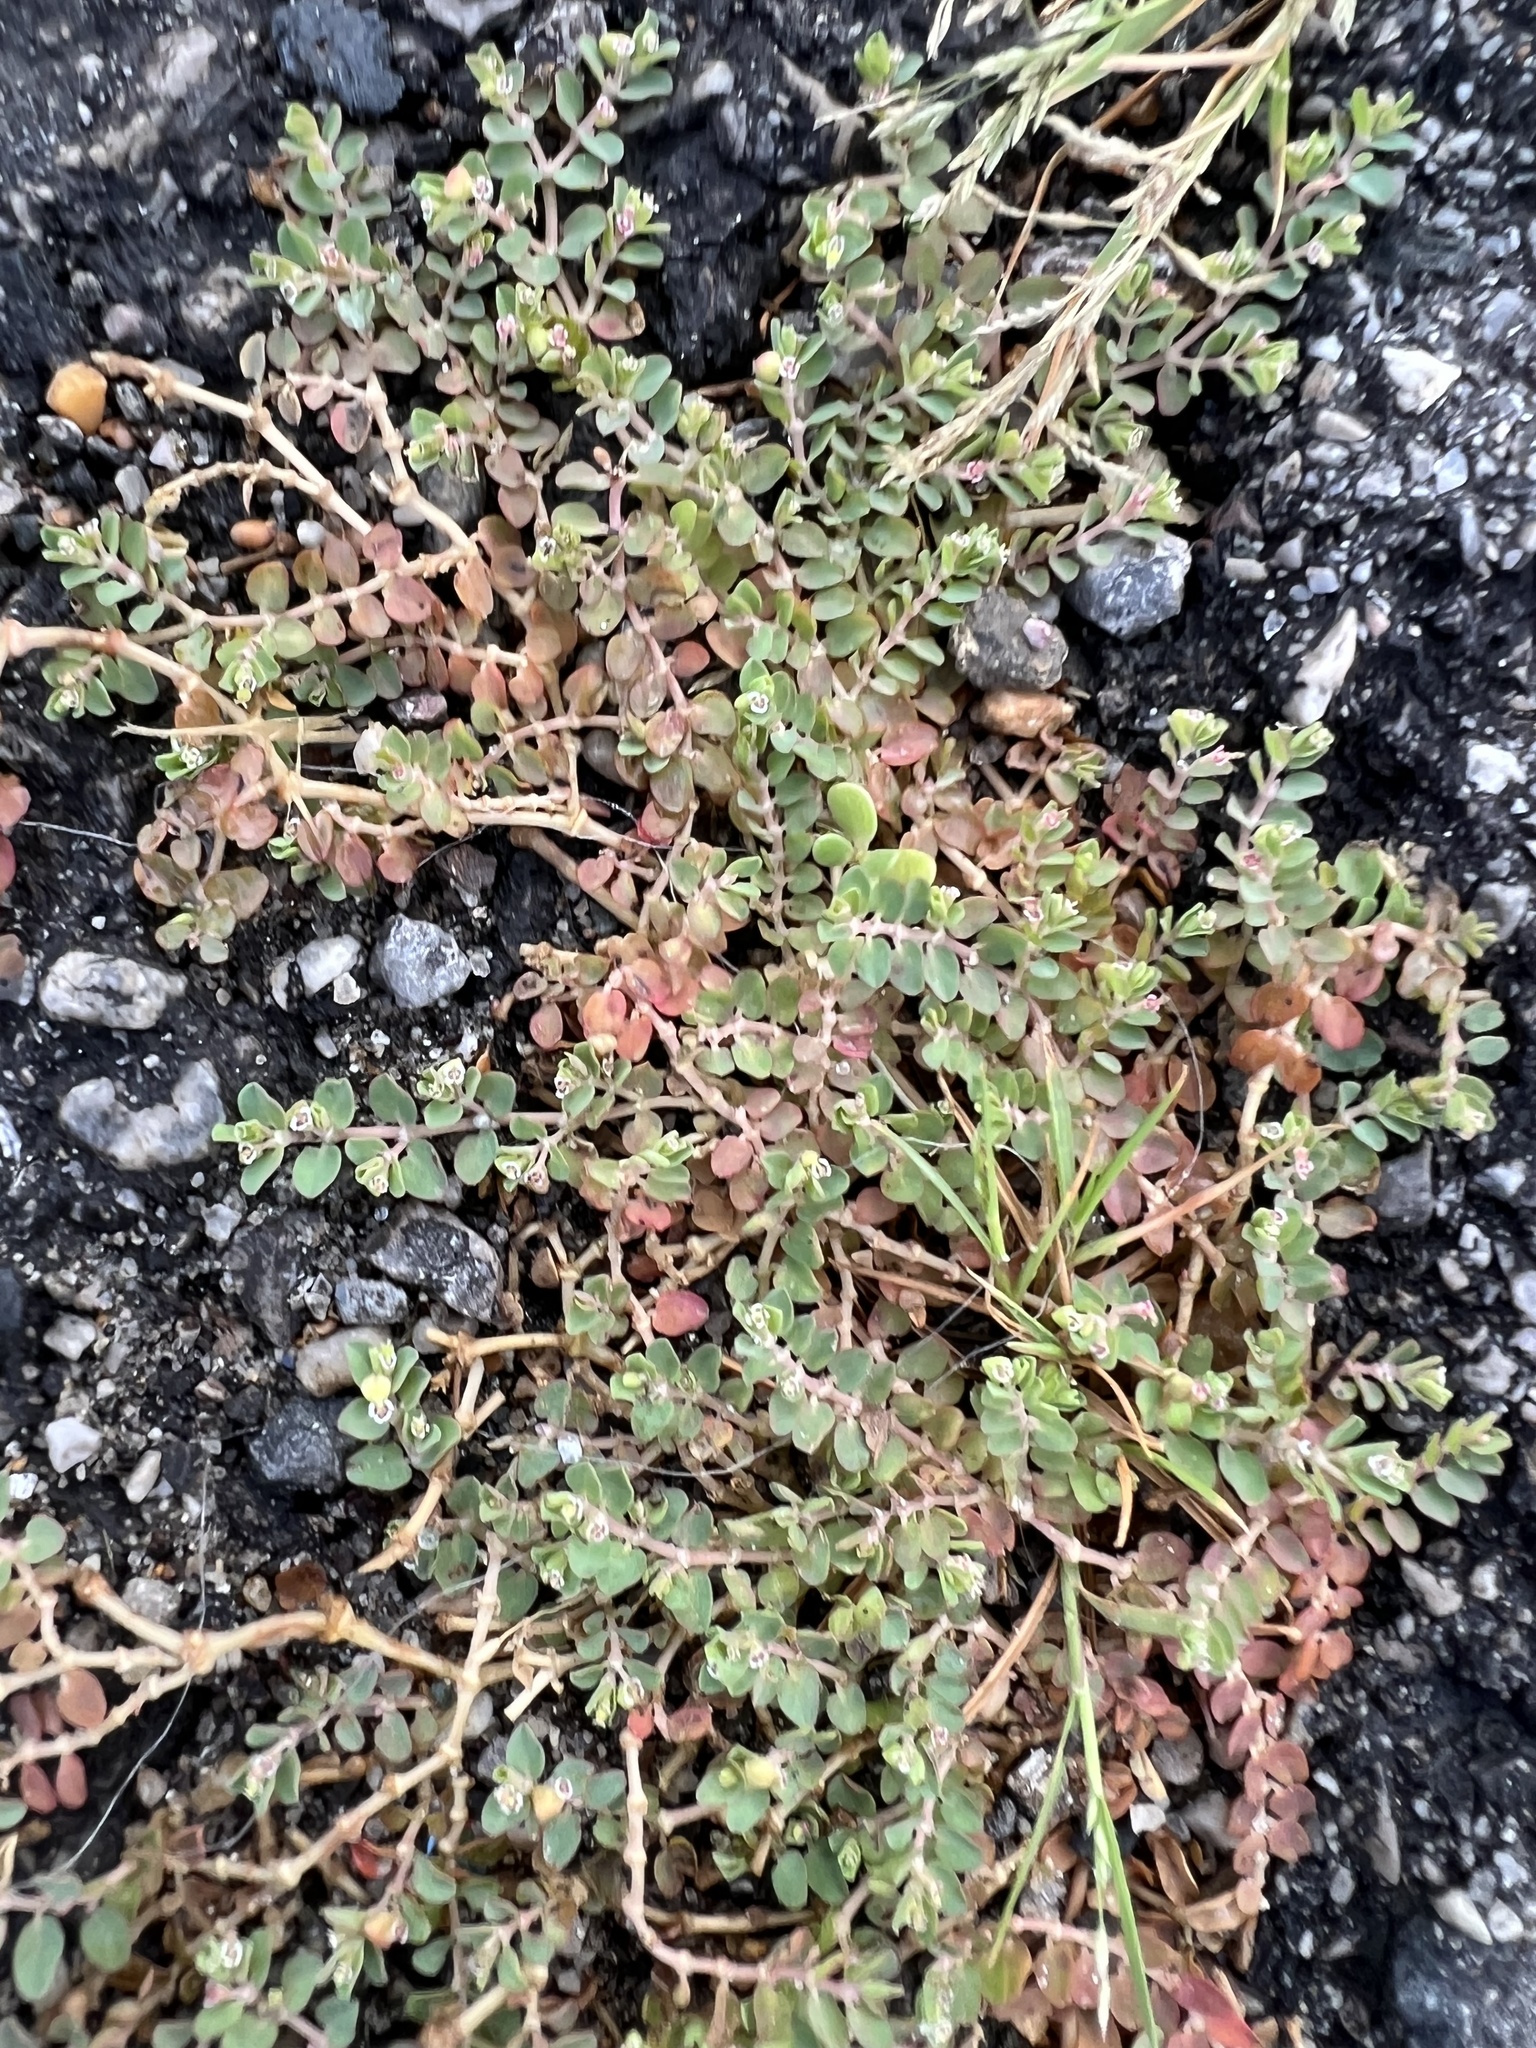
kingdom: Plantae
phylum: Tracheophyta
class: Magnoliopsida
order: Malpighiales
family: Euphorbiaceae
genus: Euphorbia
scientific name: Euphorbia serpens
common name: Matted sandmat
